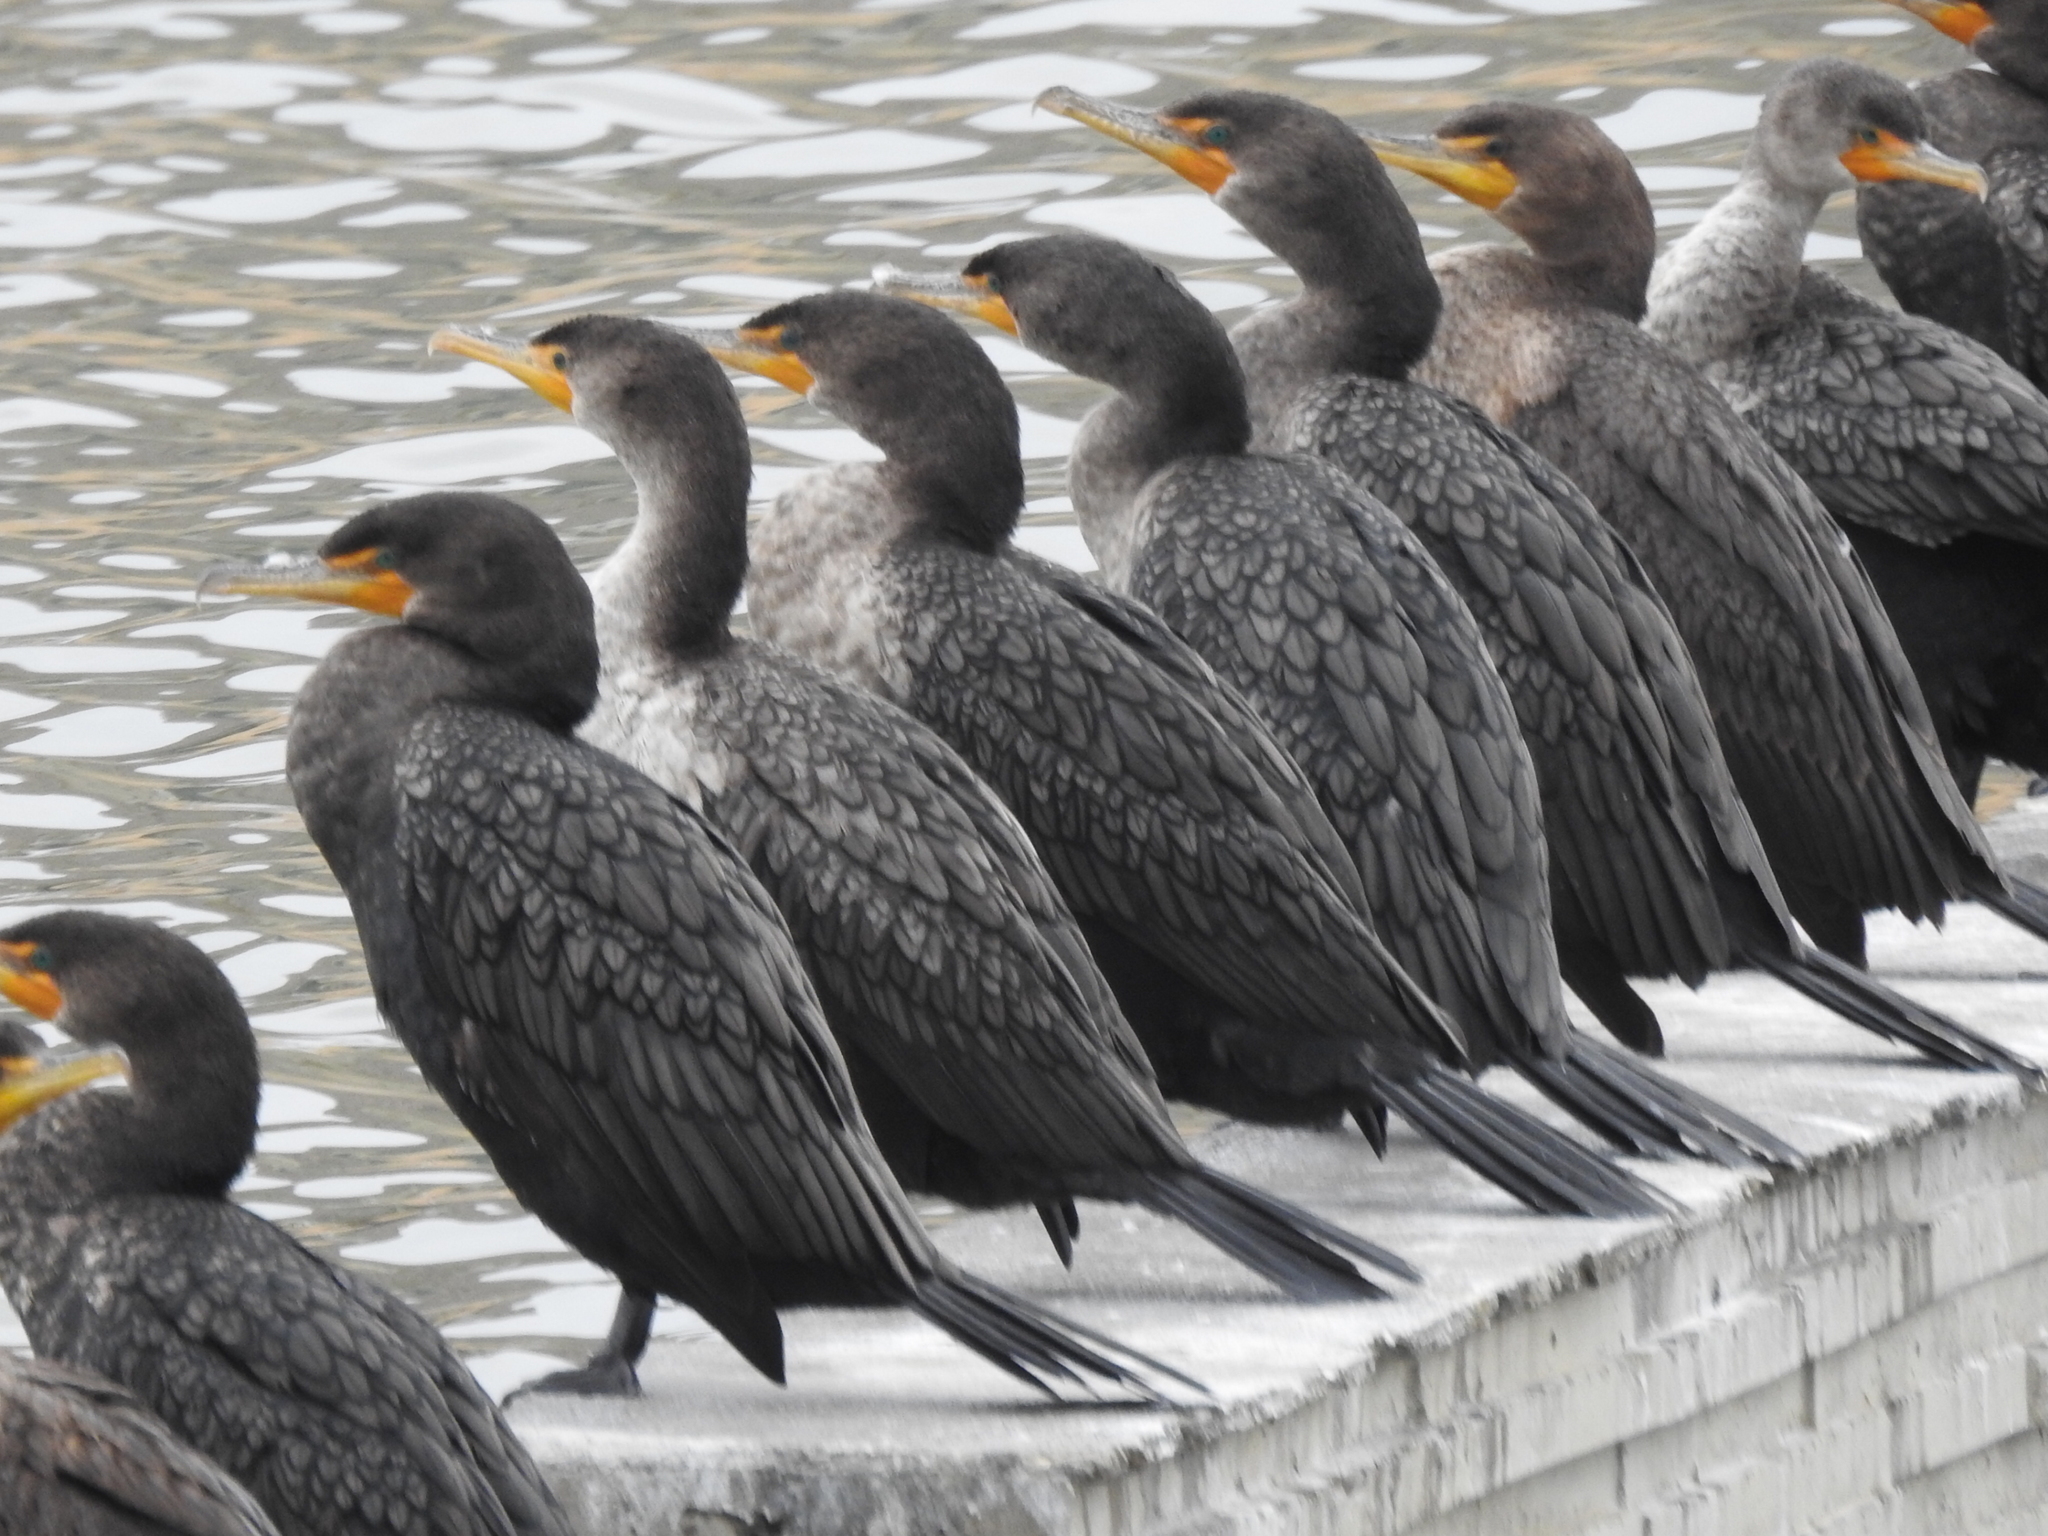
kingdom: Animalia
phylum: Chordata
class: Aves
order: Suliformes
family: Phalacrocoracidae
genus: Phalacrocorax
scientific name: Phalacrocorax auritus
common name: Double-crested cormorant
